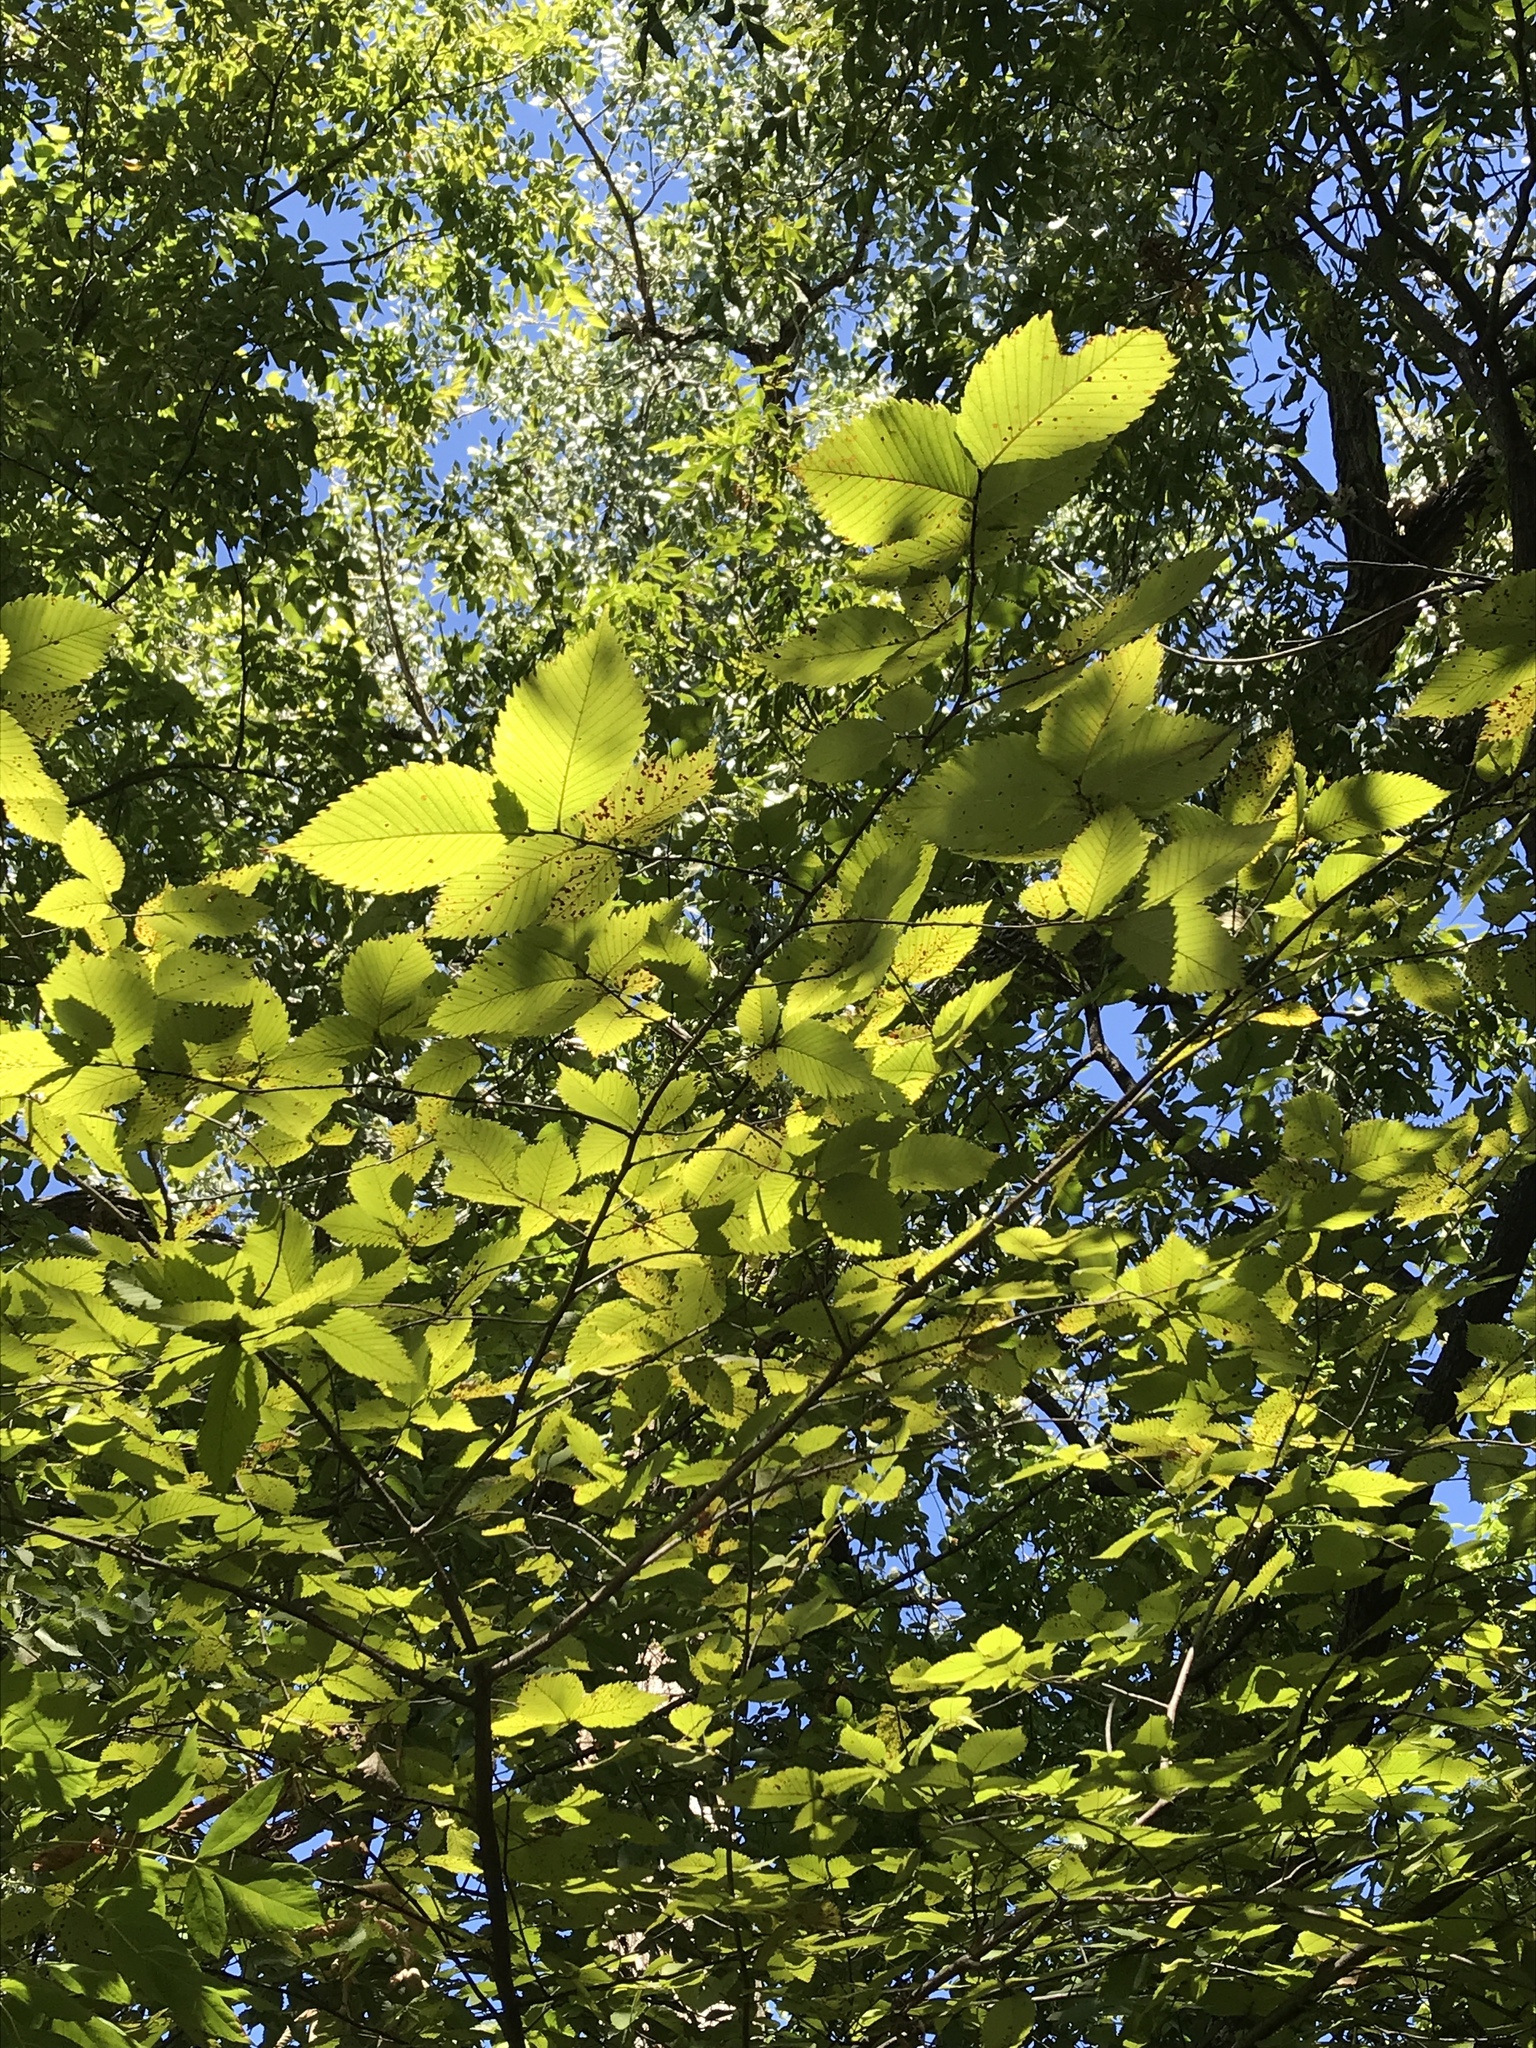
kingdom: Plantae
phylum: Tracheophyta
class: Magnoliopsida
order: Rosales
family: Ulmaceae
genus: Ulmus
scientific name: Ulmus americana
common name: American elm
